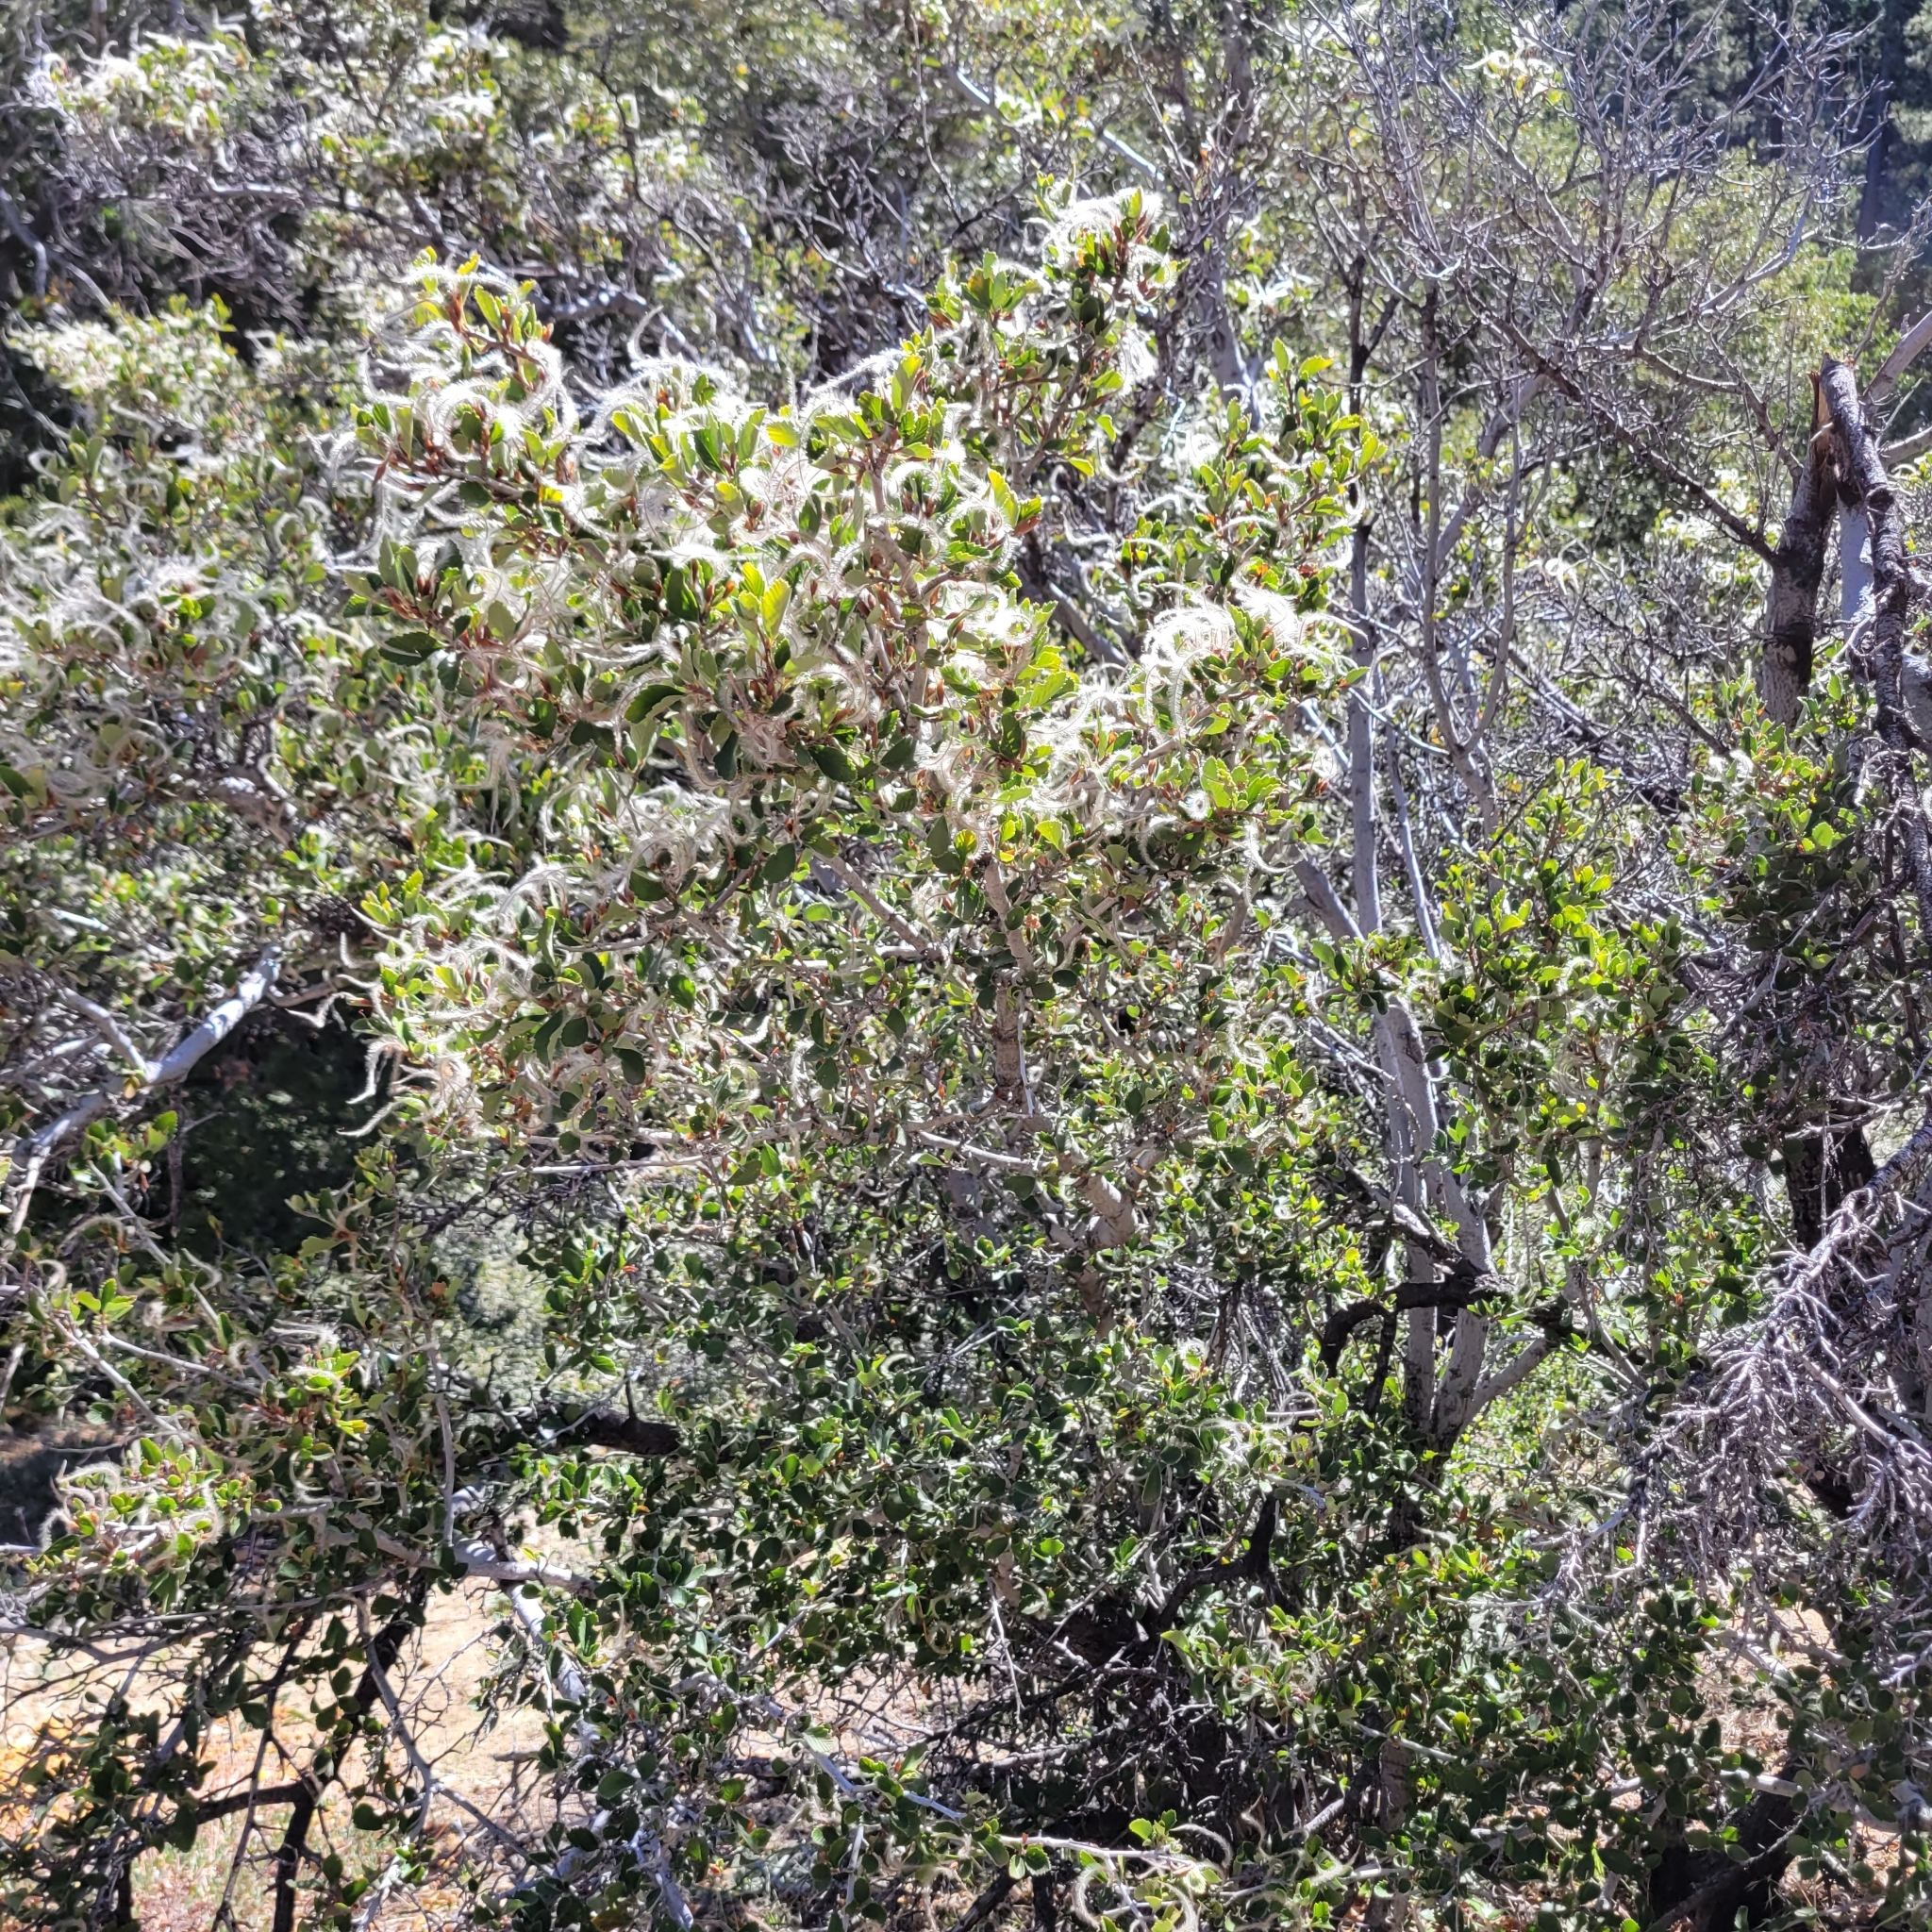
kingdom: Plantae
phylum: Tracheophyta
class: Magnoliopsida
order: Rosales
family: Rosaceae
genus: Cercocarpus
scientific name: Cercocarpus betuloides
